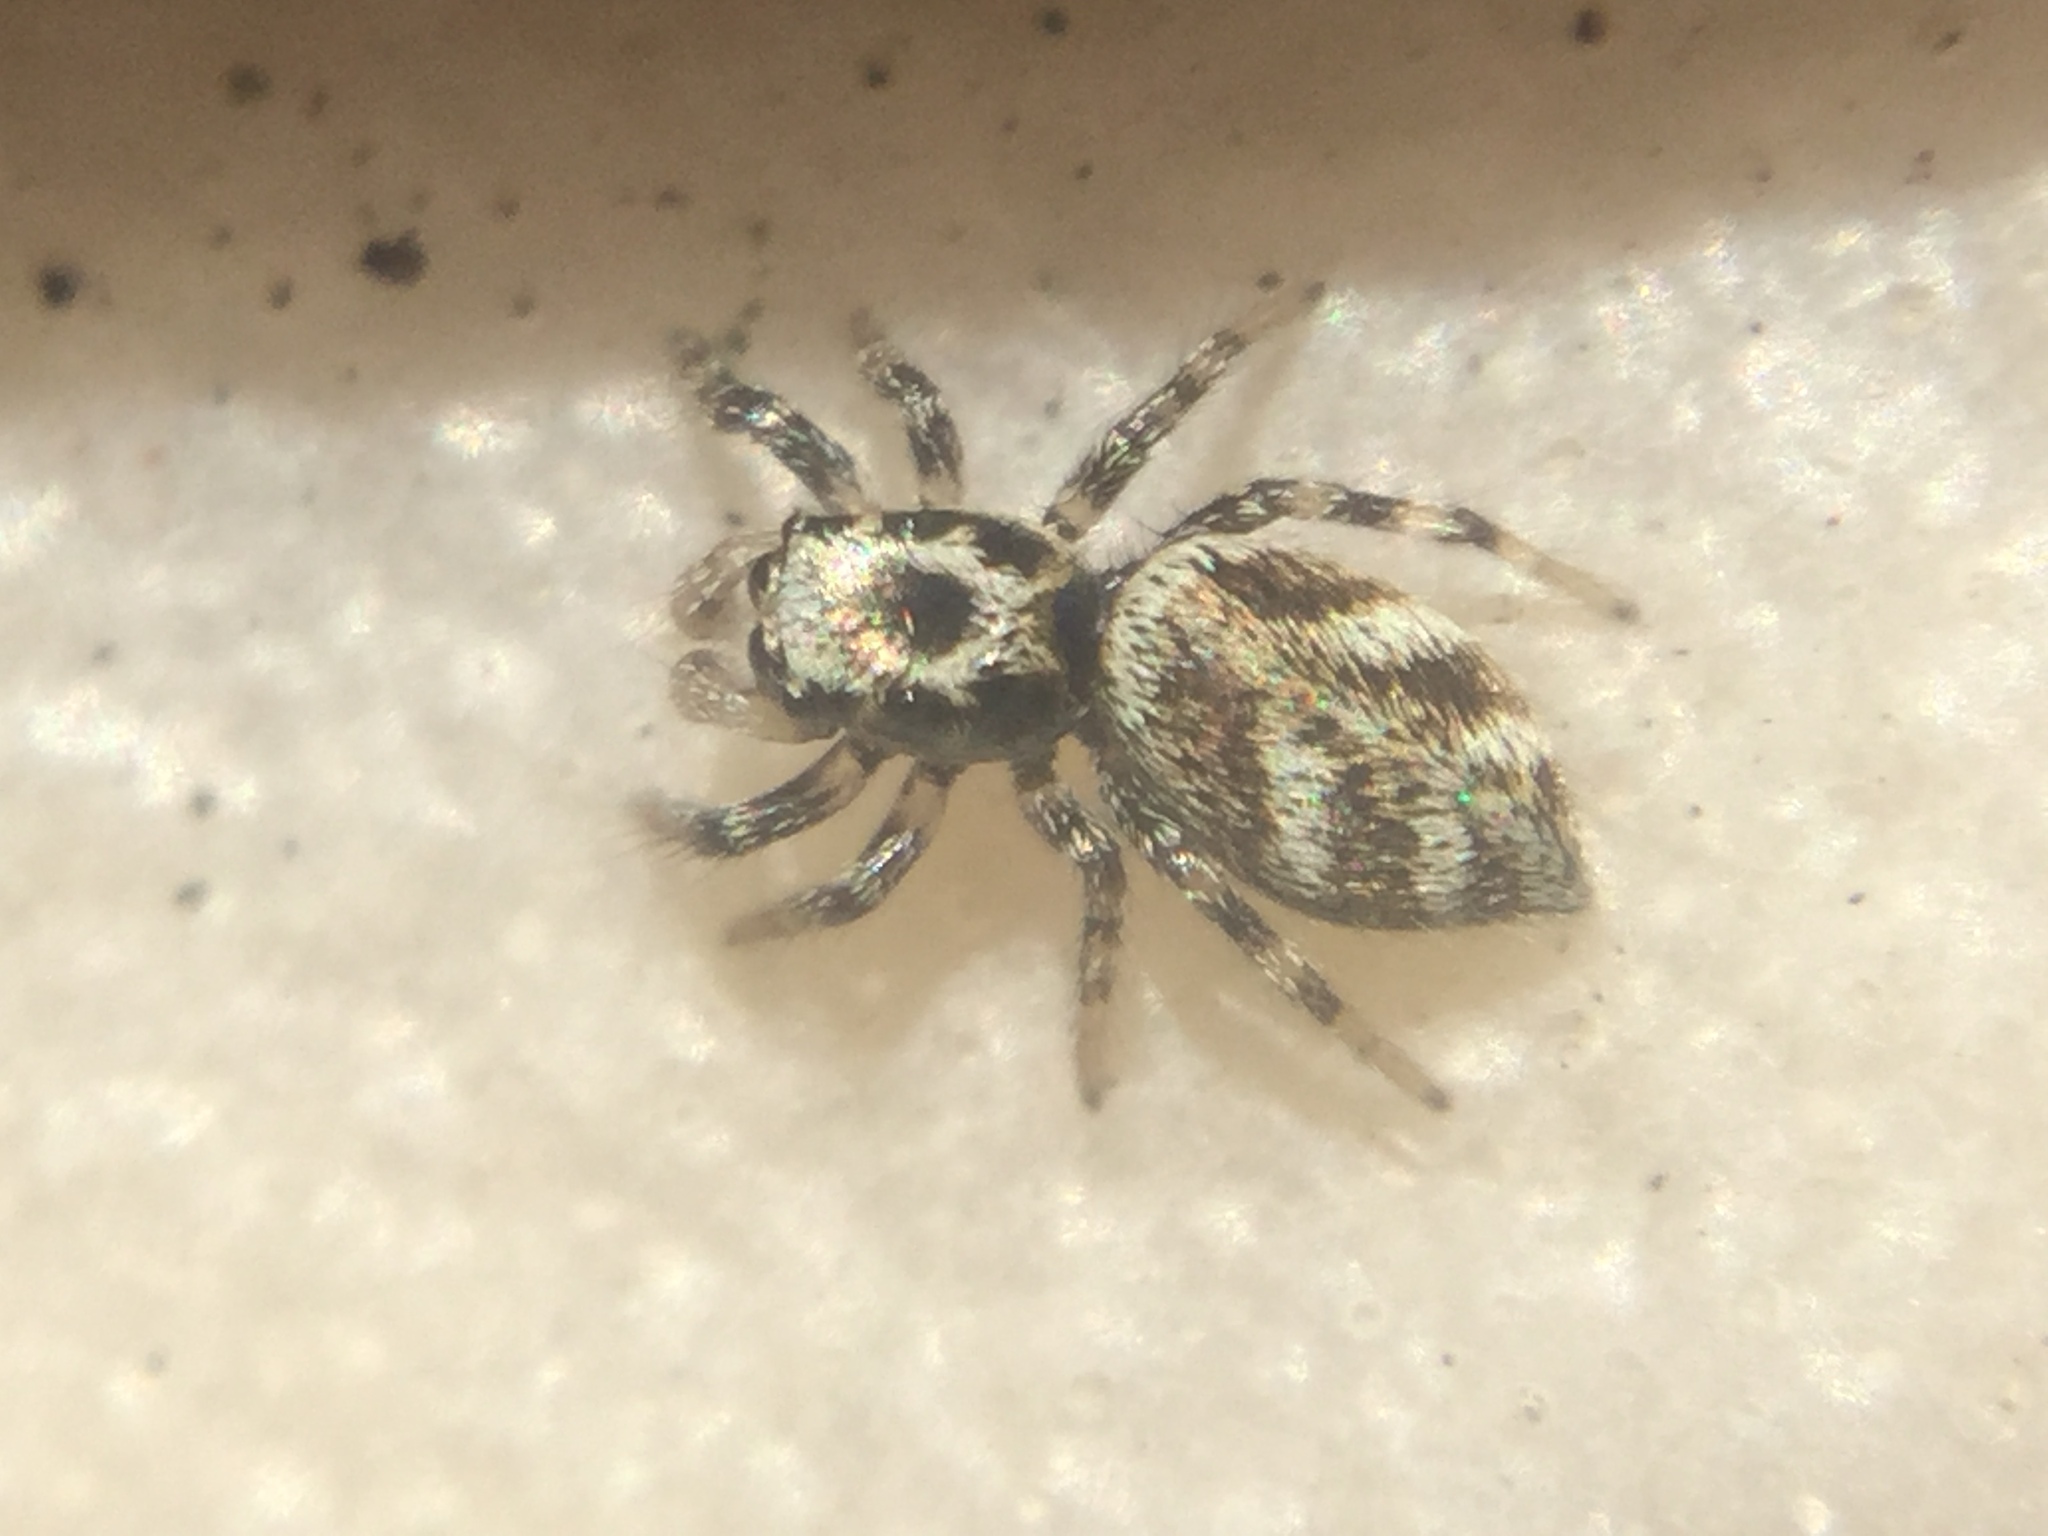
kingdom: Animalia
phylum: Arthropoda
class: Arachnida
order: Araneae
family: Salticidae
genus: Salticus
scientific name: Salticus scenicus
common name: Zebra jumper
